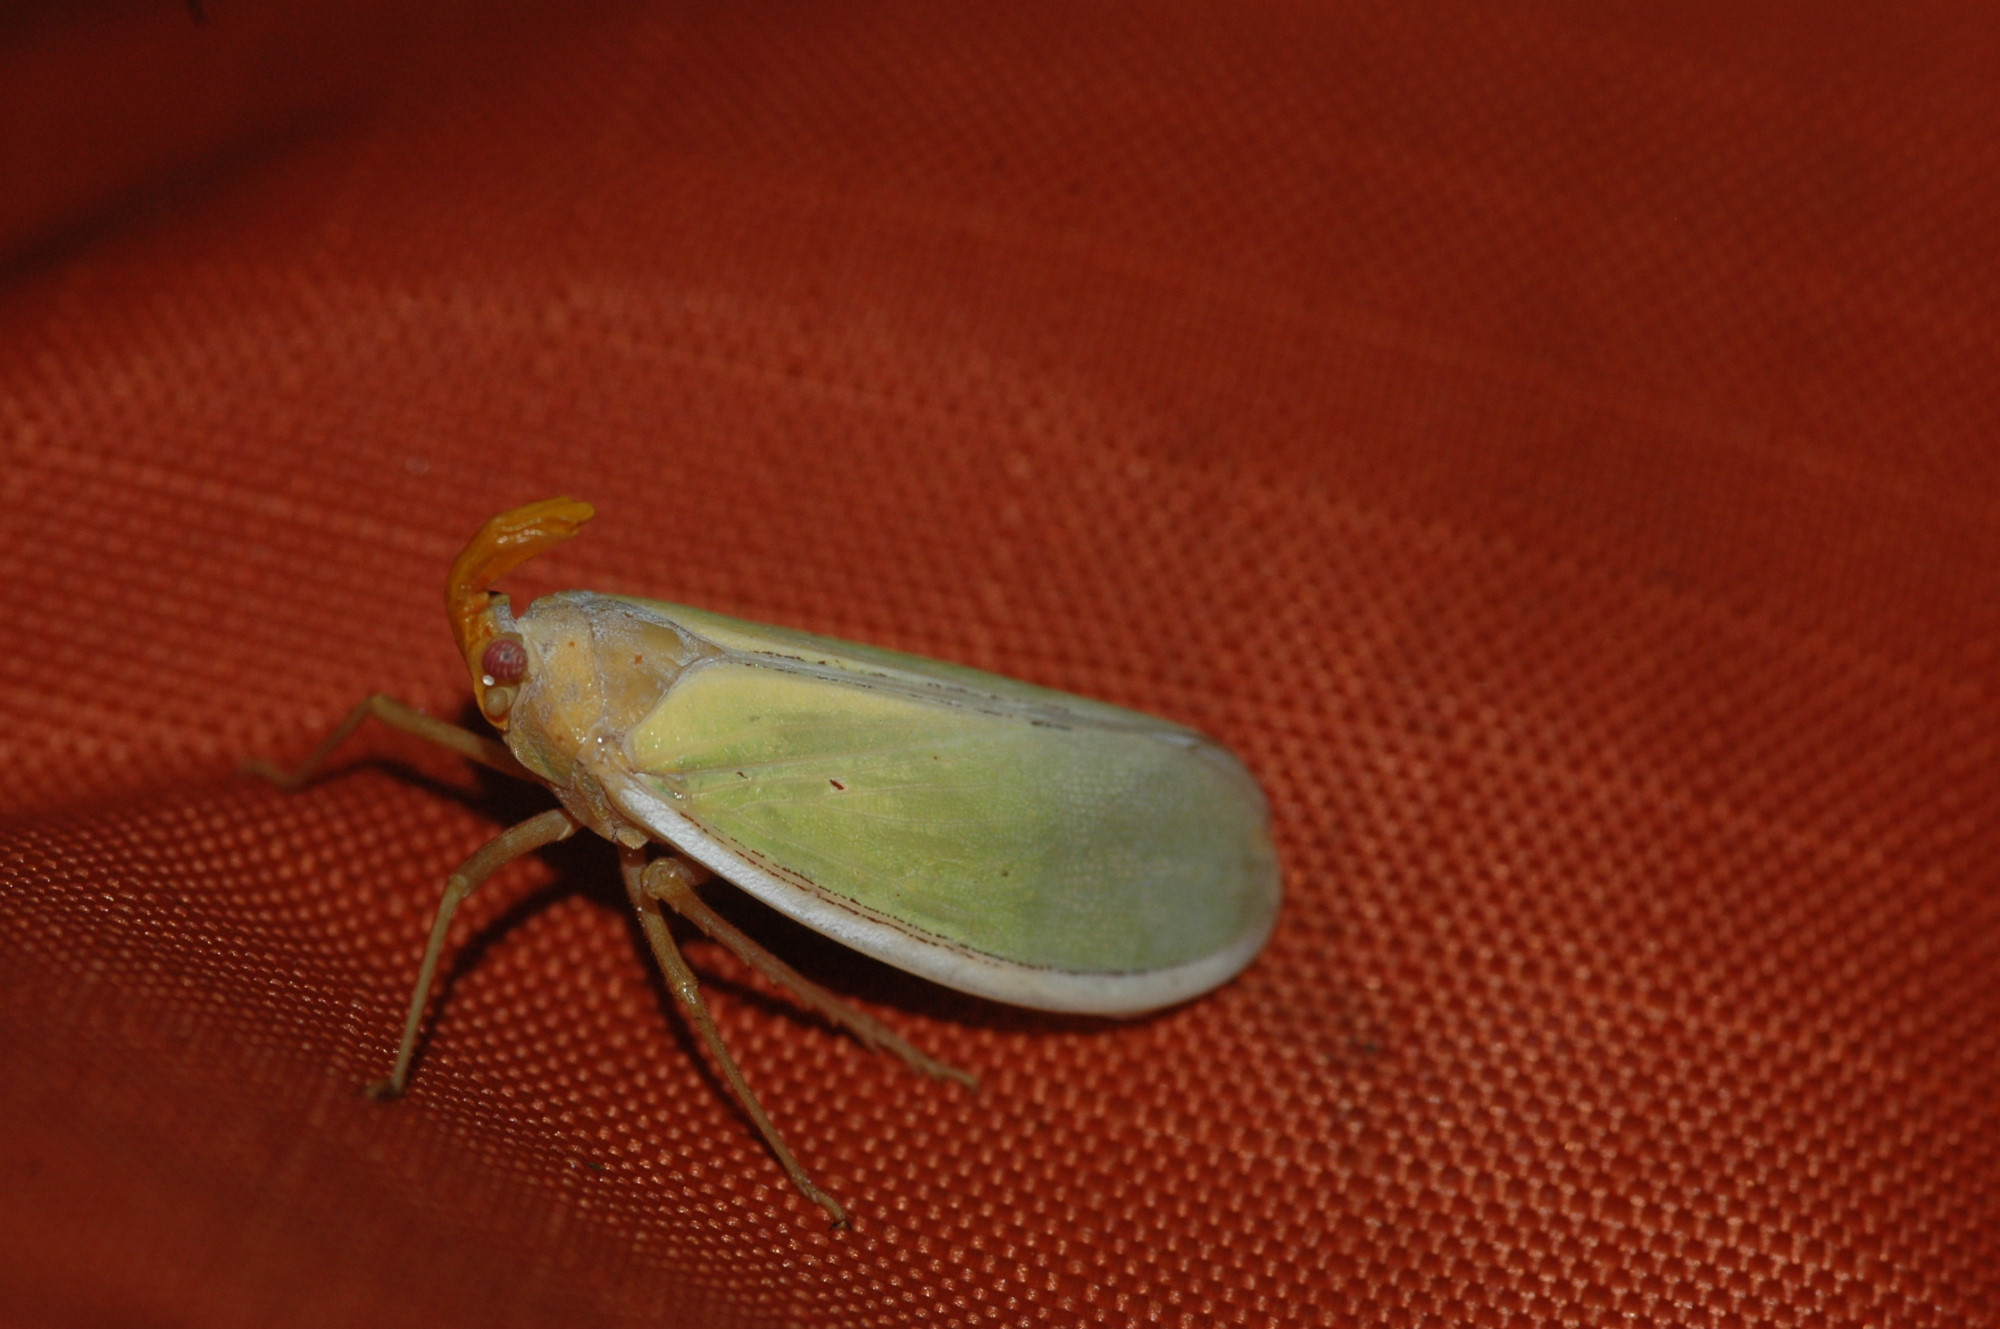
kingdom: Animalia
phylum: Arthropoda
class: Insecta
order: Hemiptera
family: Fulgoridae
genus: Enchophora
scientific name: Enchophora prasina
